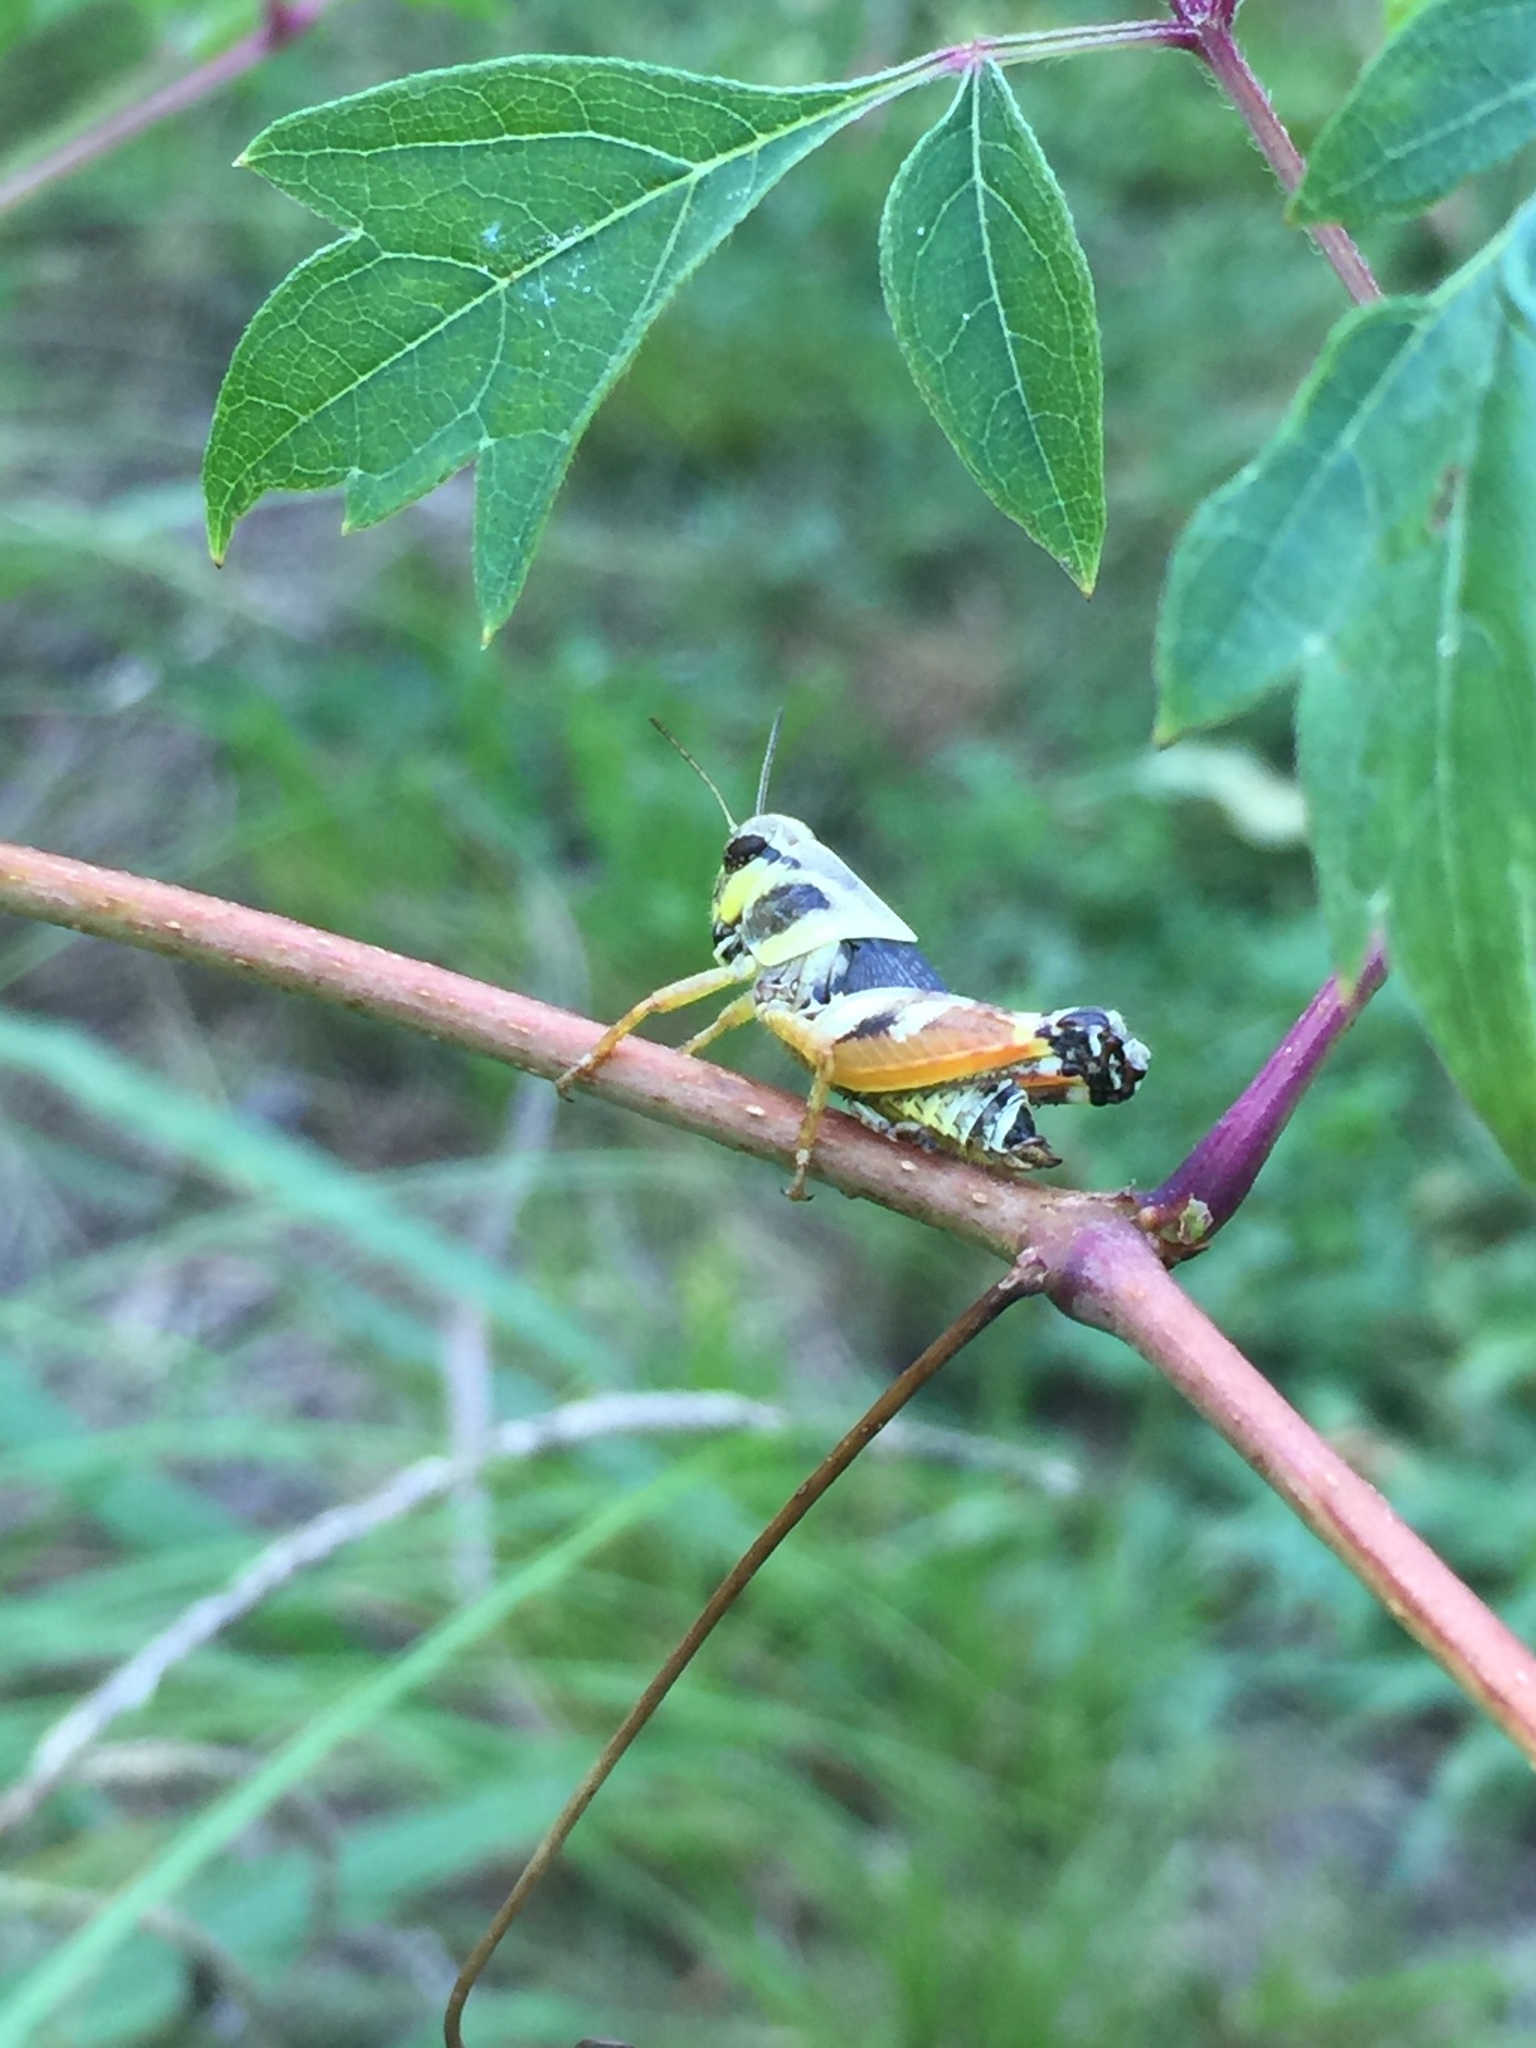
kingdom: Animalia
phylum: Arthropoda
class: Insecta
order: Orthoptera
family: Acrididae
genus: Aidemona
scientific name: Aidemona azteca
